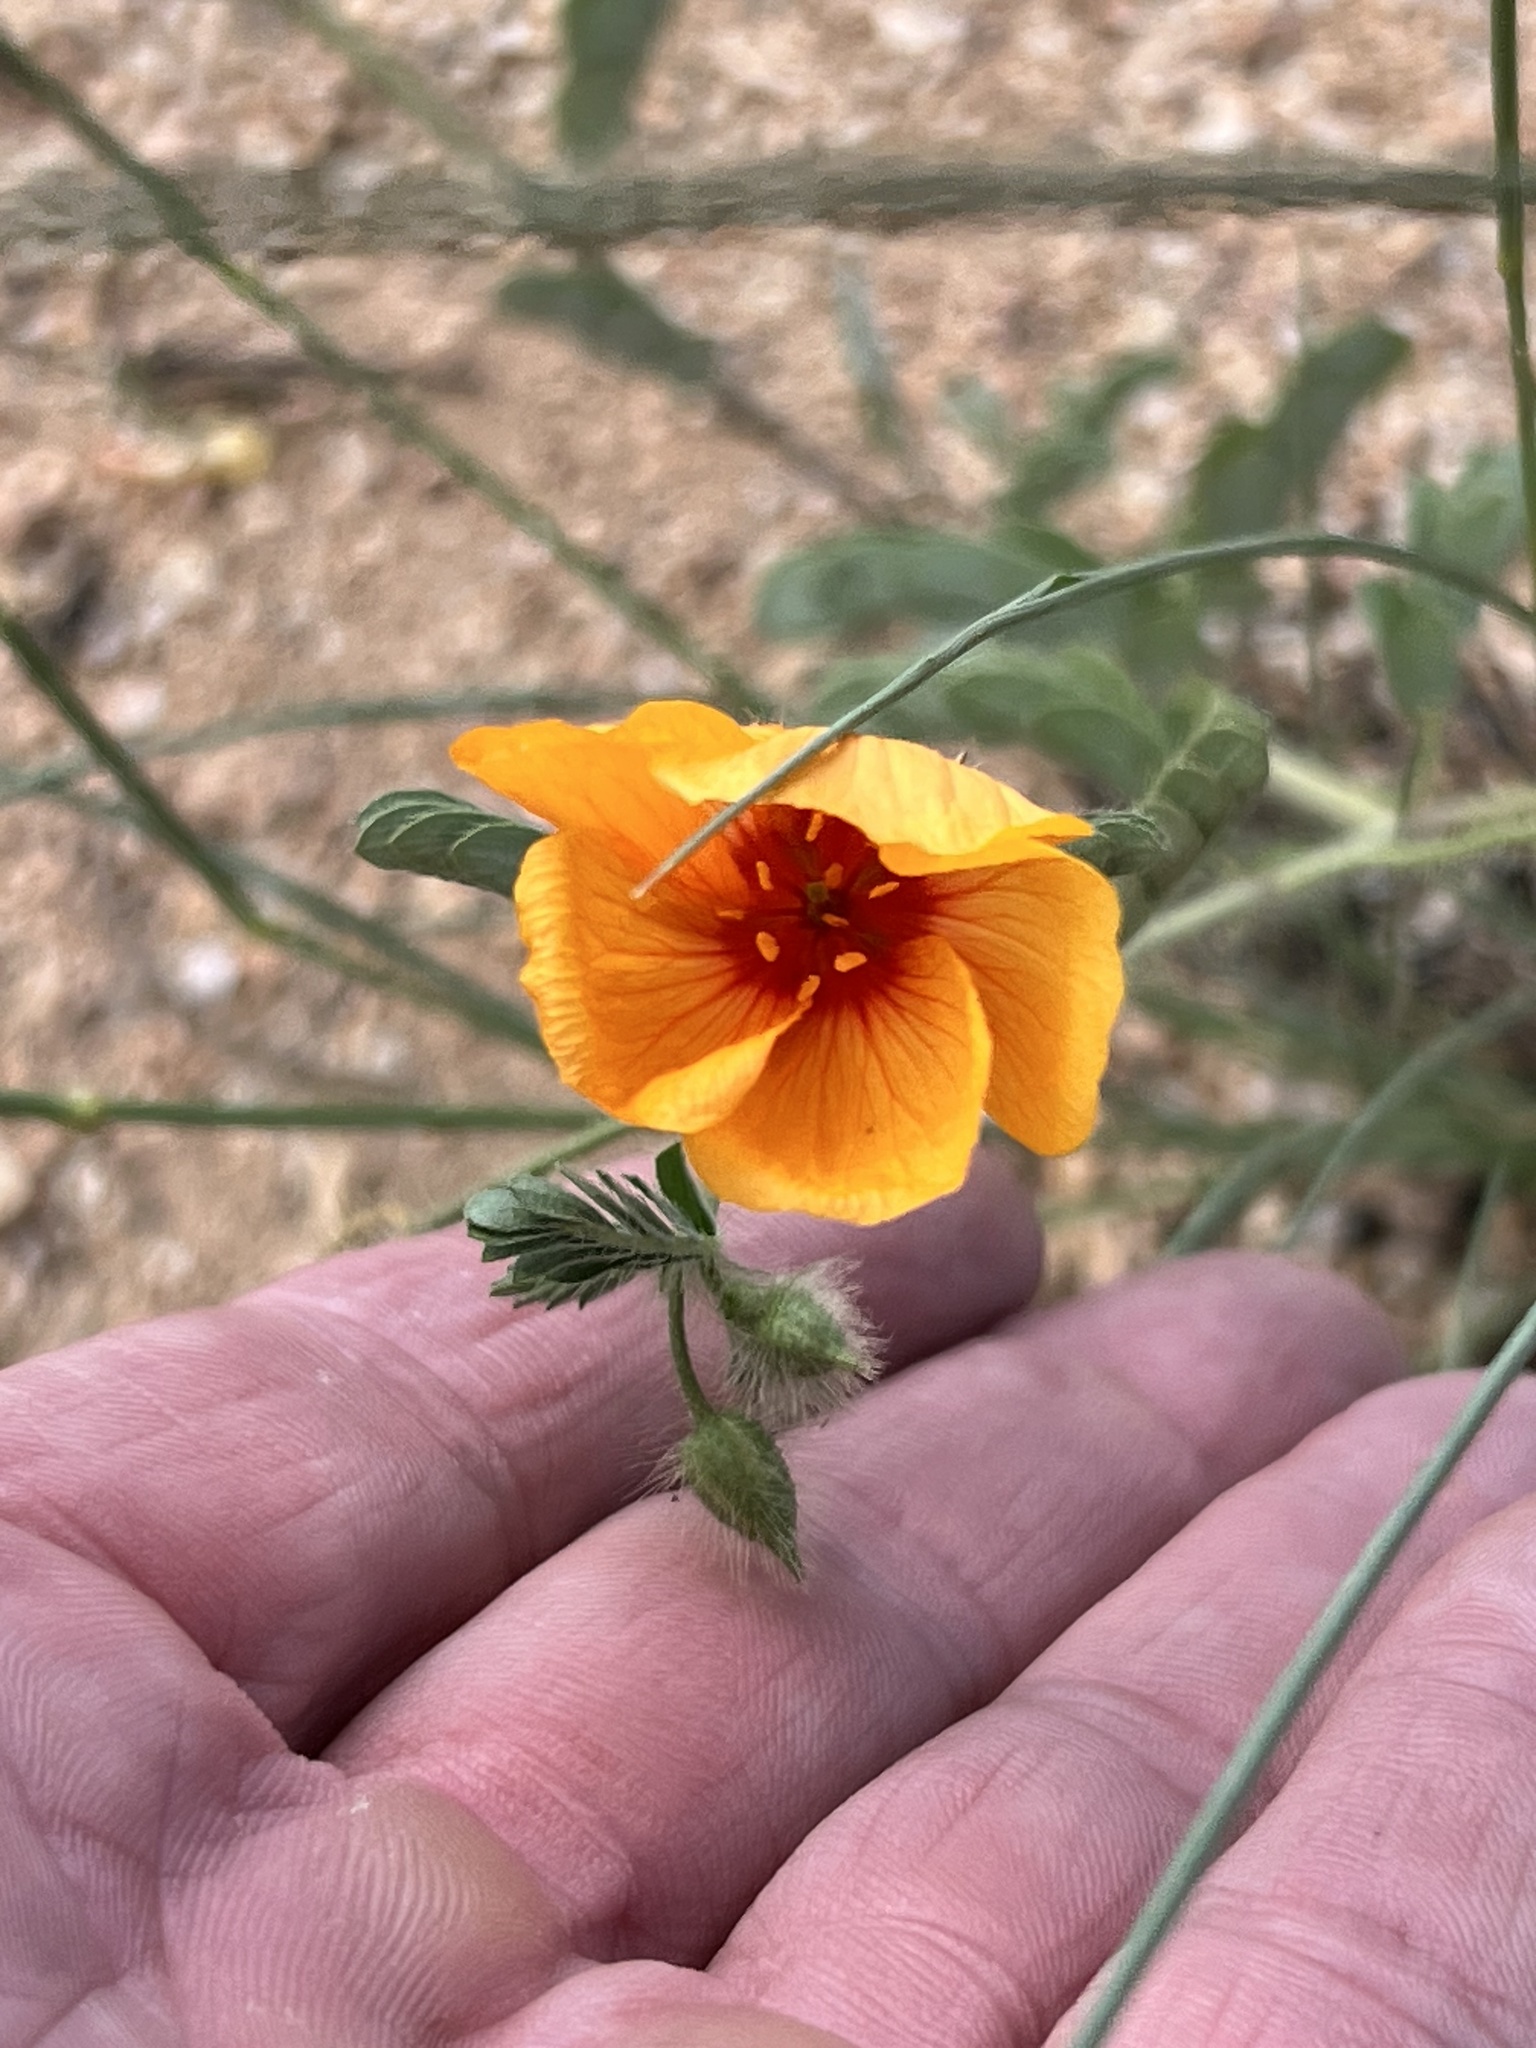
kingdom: Plantae
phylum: Tracheophyta
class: Magnoliopsida
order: Zygophyllales
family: Zygophyllaceae
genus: Kallstroemia
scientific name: Kallstroemia grandiflora
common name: Arizona-poppy
